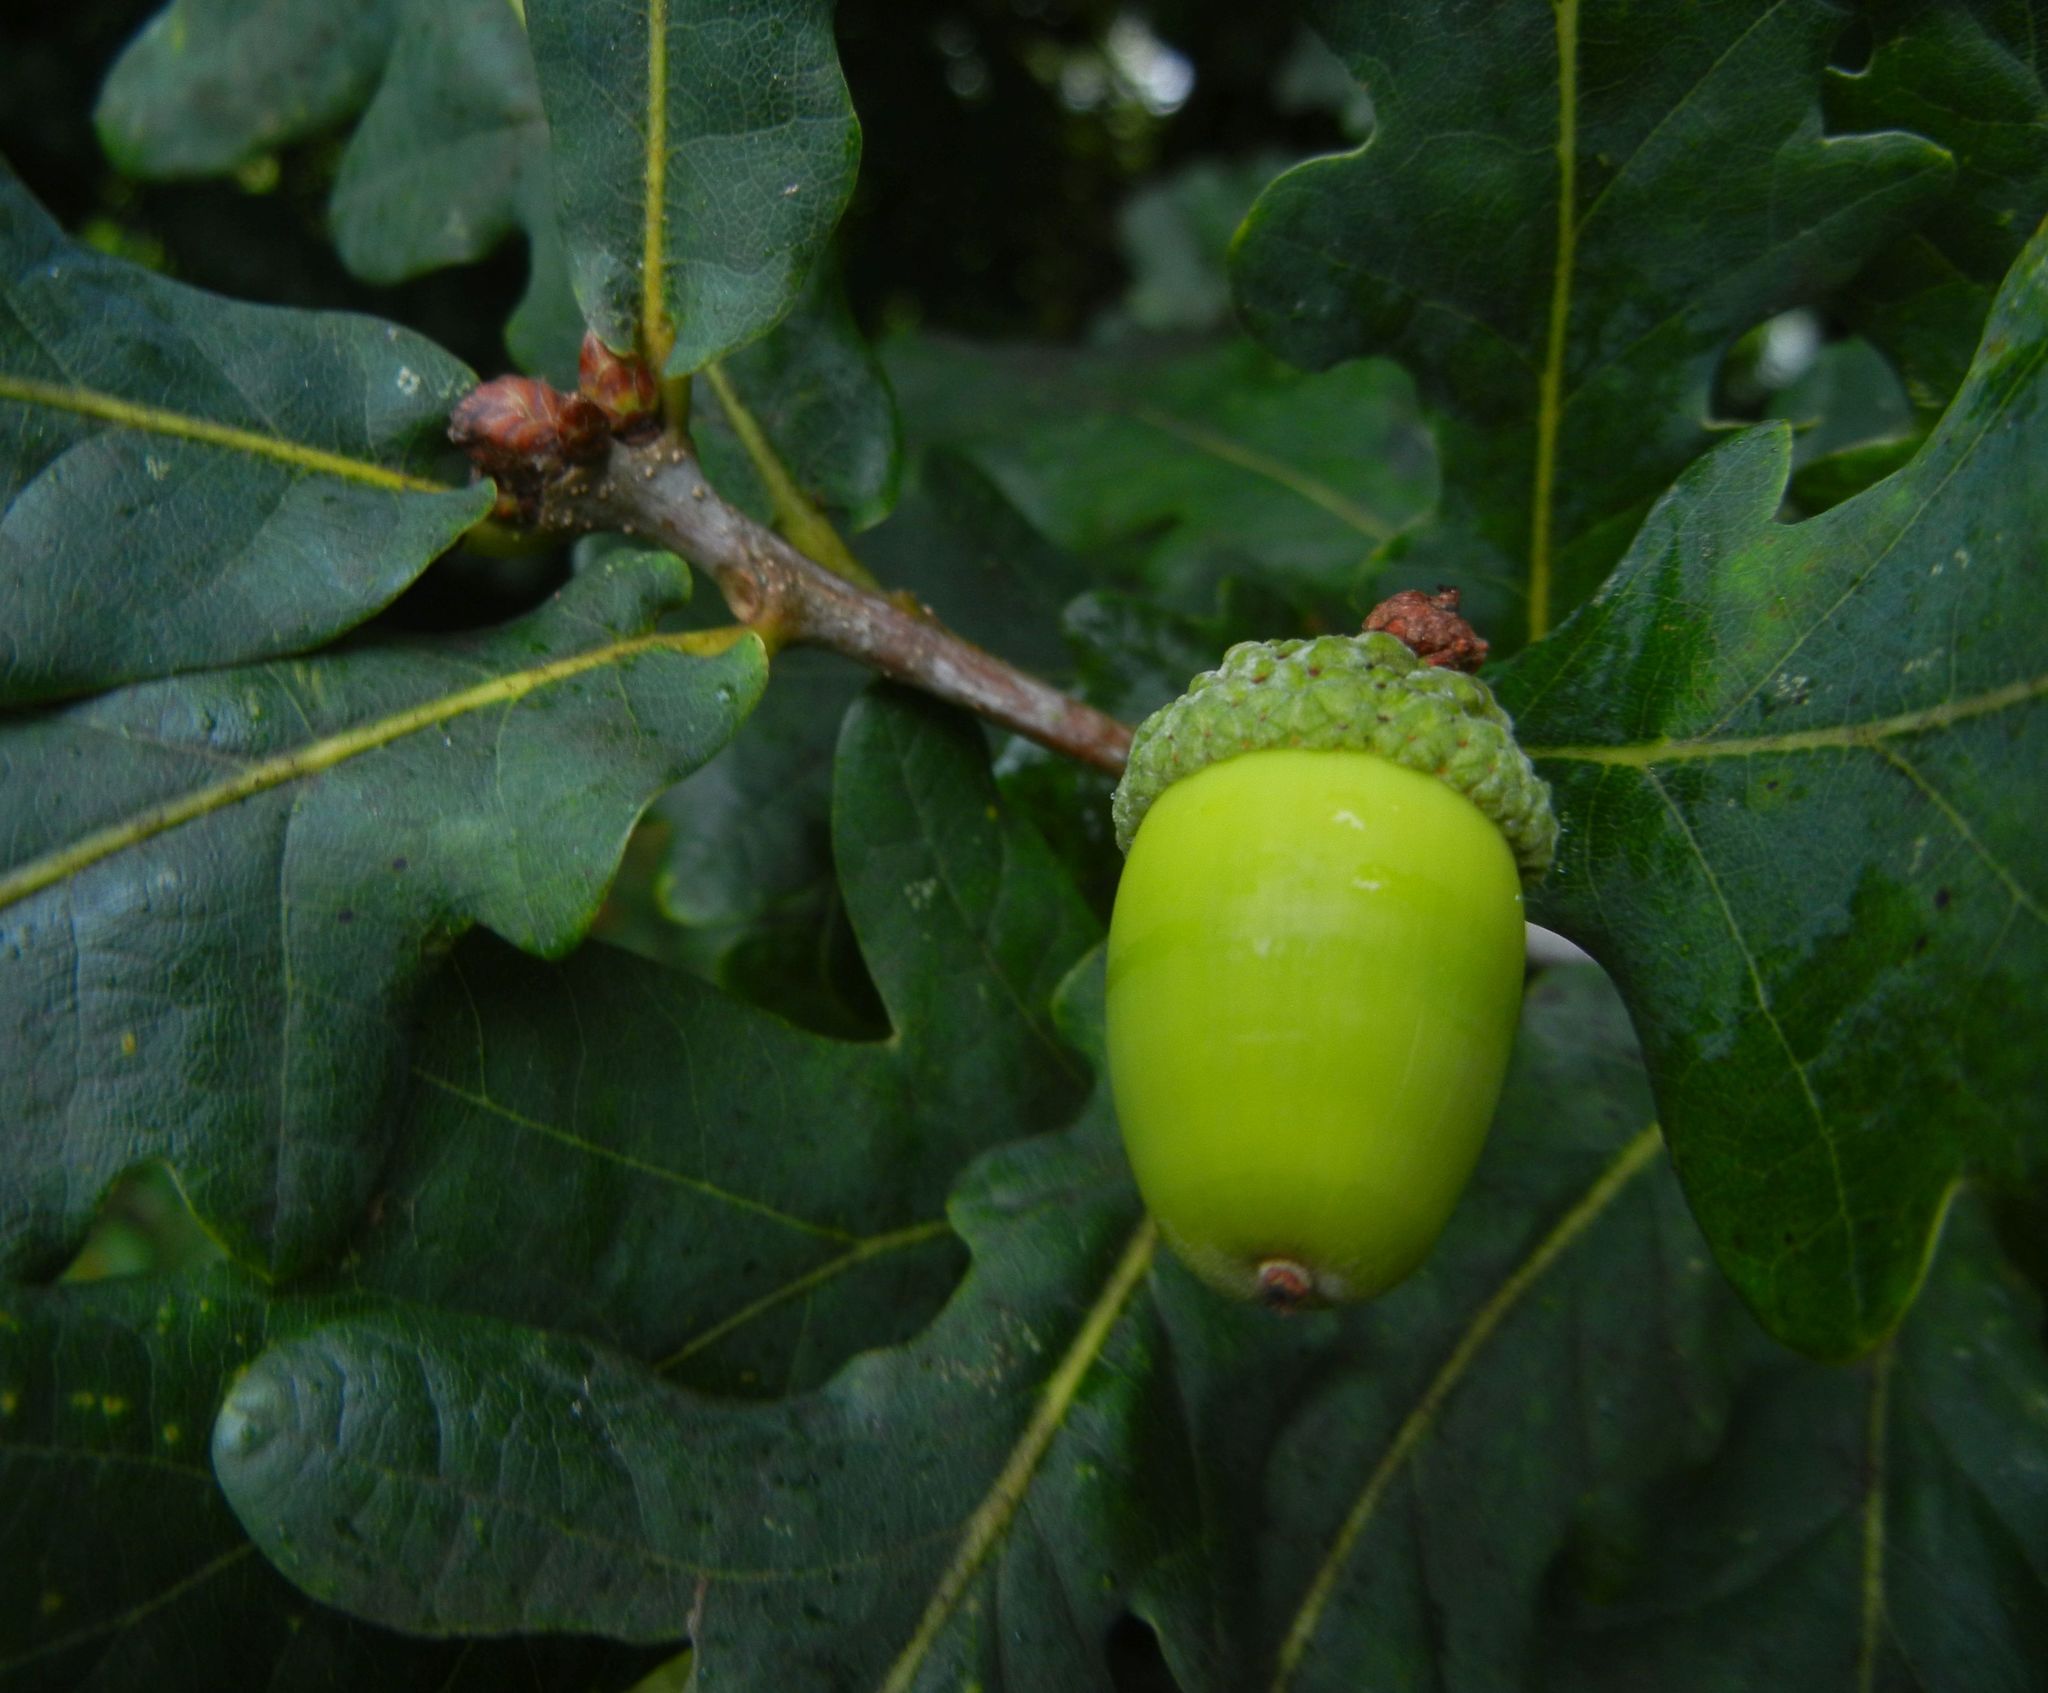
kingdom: Plantae
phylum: Tracheophyta
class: Magnoliopsida
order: Fagales
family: Fagaceae
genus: Quercus
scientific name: Quercus robur
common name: Pedunculate oak
